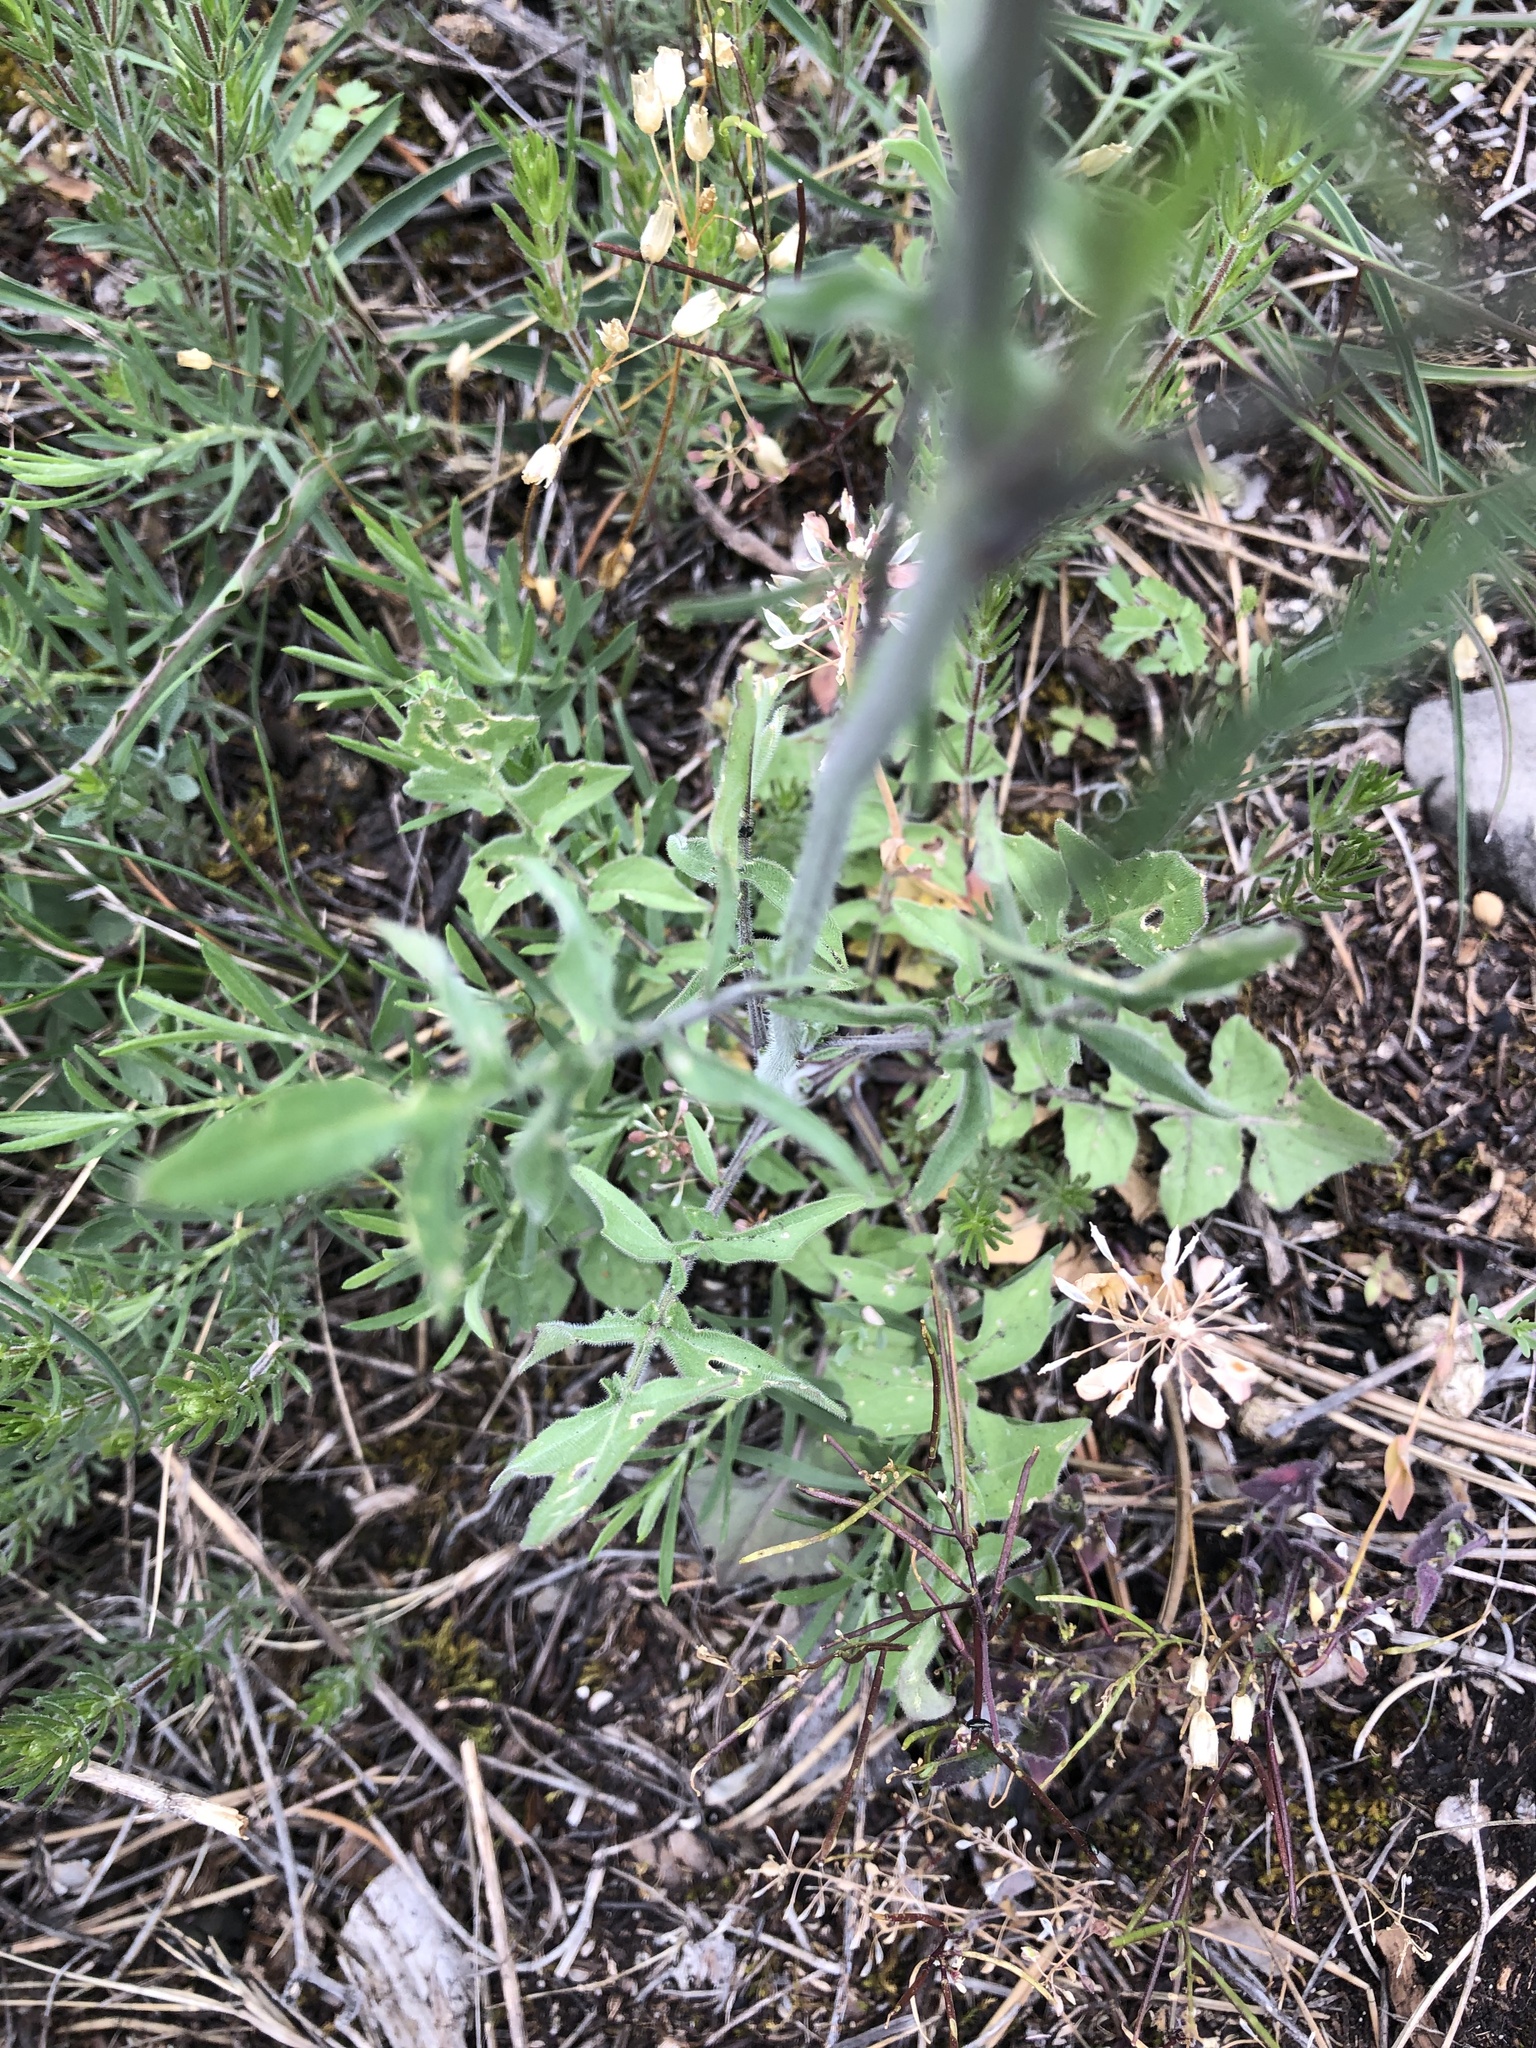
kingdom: Plantae
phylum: Tracheophyta
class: Magnoliopsida
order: Brassicales
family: Brassicaceae
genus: Sisymbrium
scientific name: Sisymbrium orientale
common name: Eastern rocket
